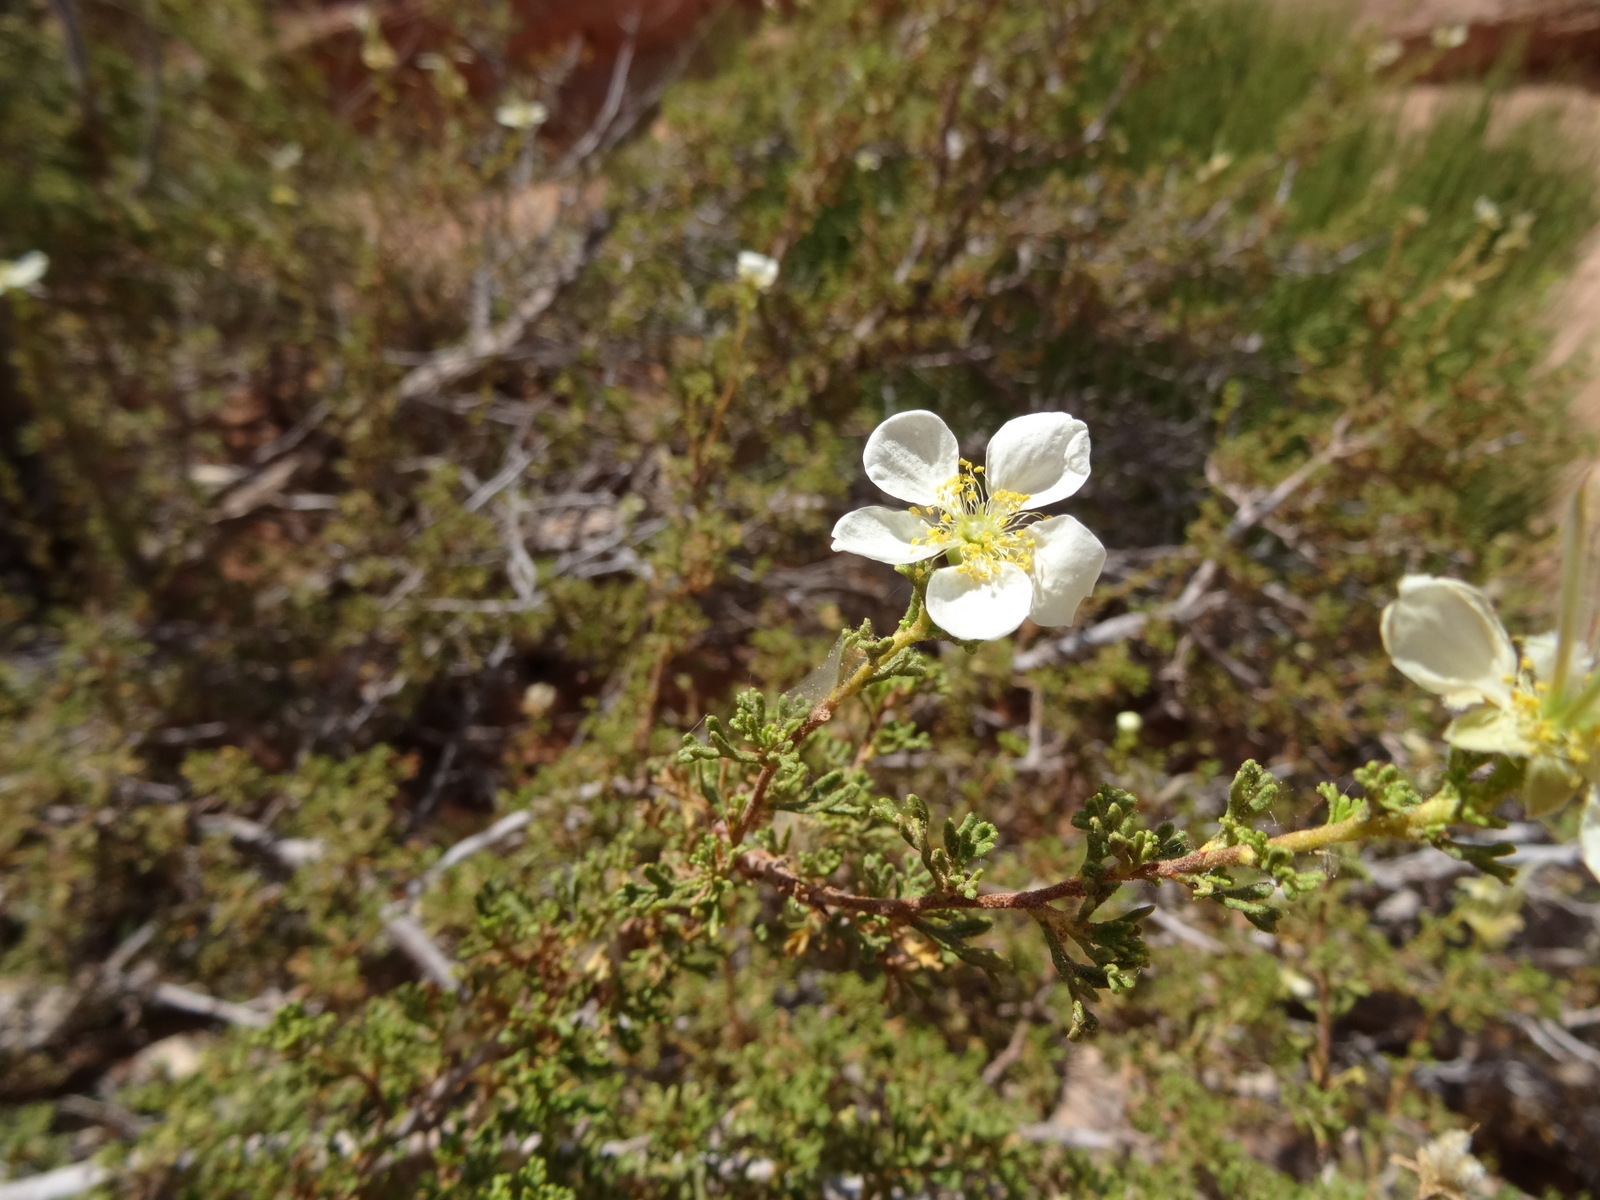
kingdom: Plantae
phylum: Tracheophyta
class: Magnoliopsida
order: Rosales
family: Rosaceae
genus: Purshia
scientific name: Purshia stansburiana
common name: Stansbury's cliffrose
